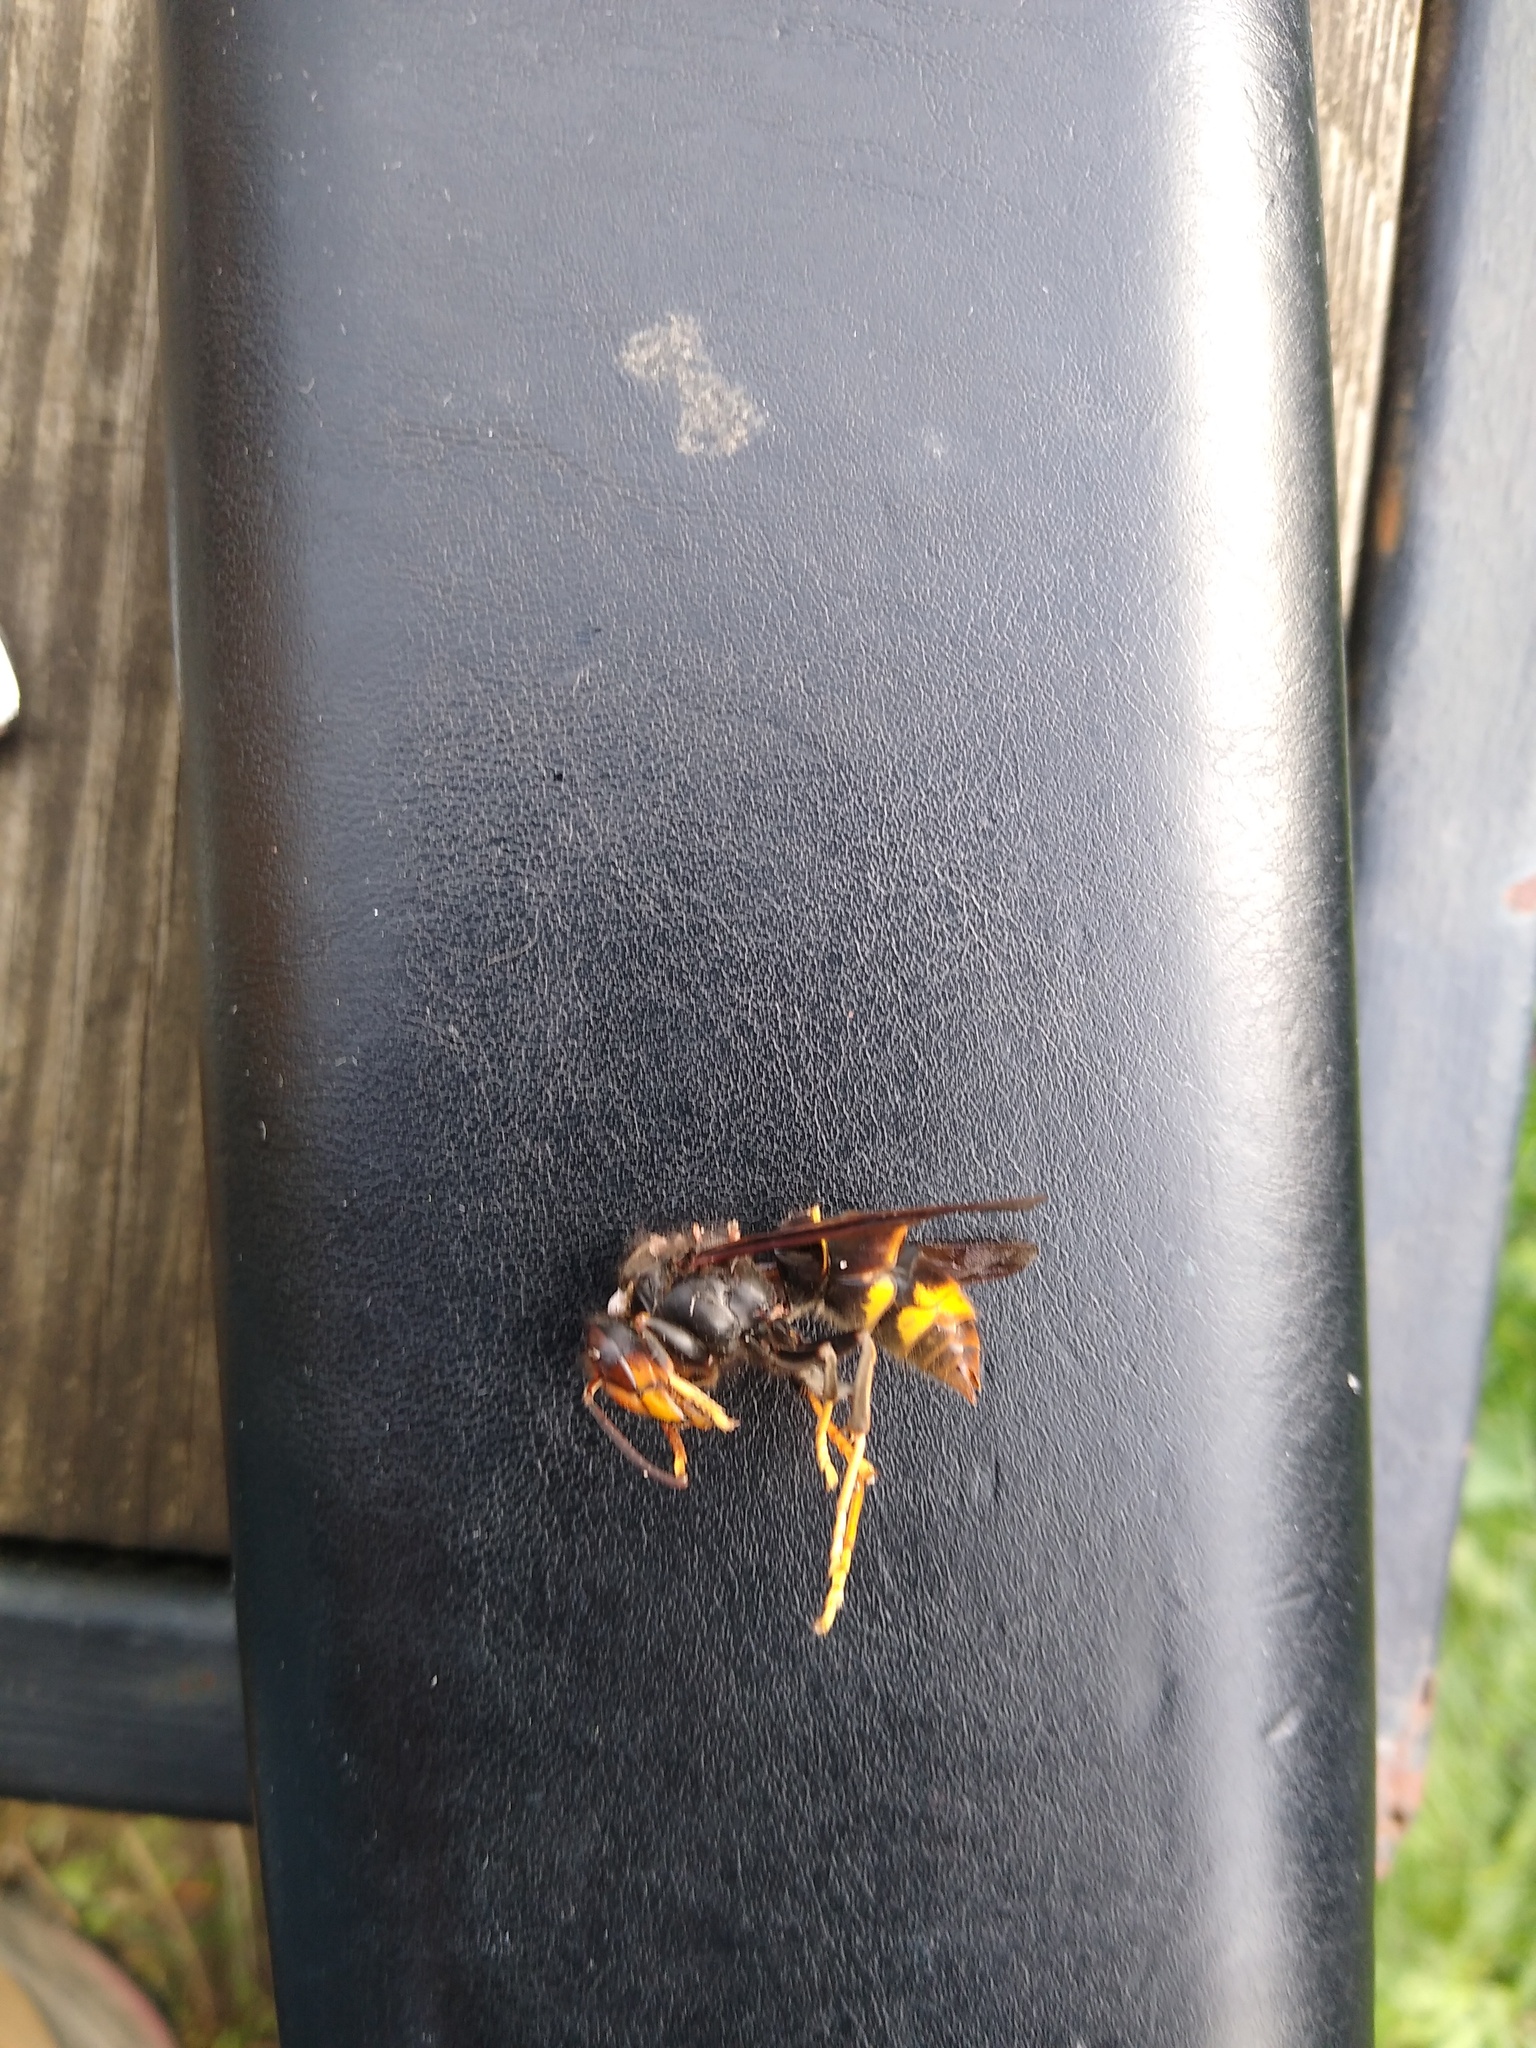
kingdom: Animalia
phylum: Arthropoda
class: Insecta
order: Hymenoptera
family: Vespidae
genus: Vespa
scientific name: Vespa velutina
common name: Asian hornet
